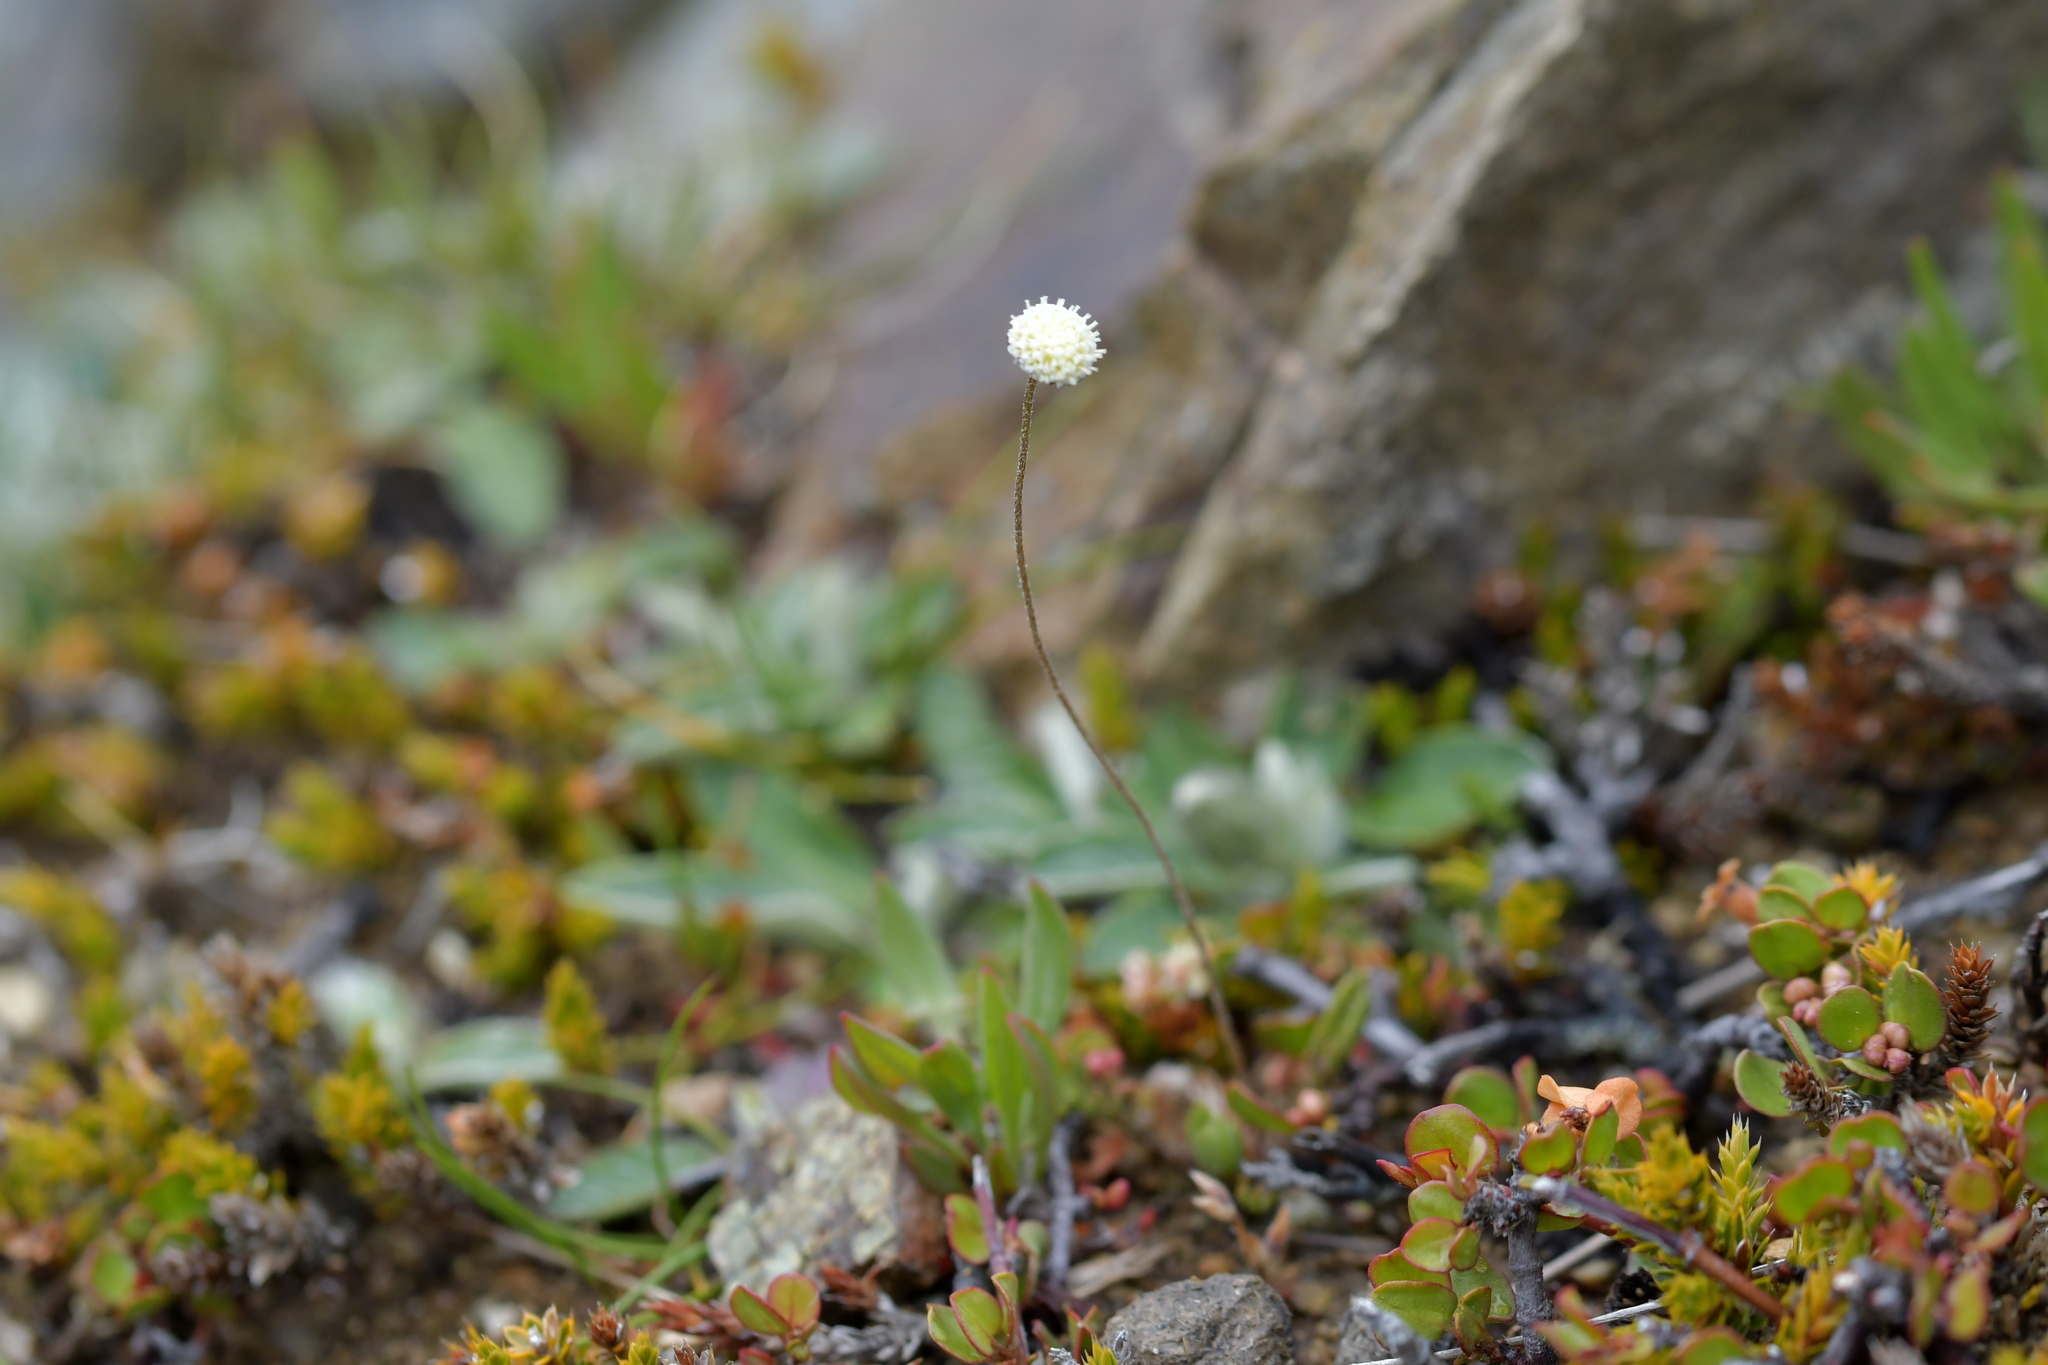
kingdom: Plantae
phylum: Tracheophyta
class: Magnoliopsida
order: Asterales
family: Asteraceae
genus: Leptinella
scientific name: Leptinella pectinata
